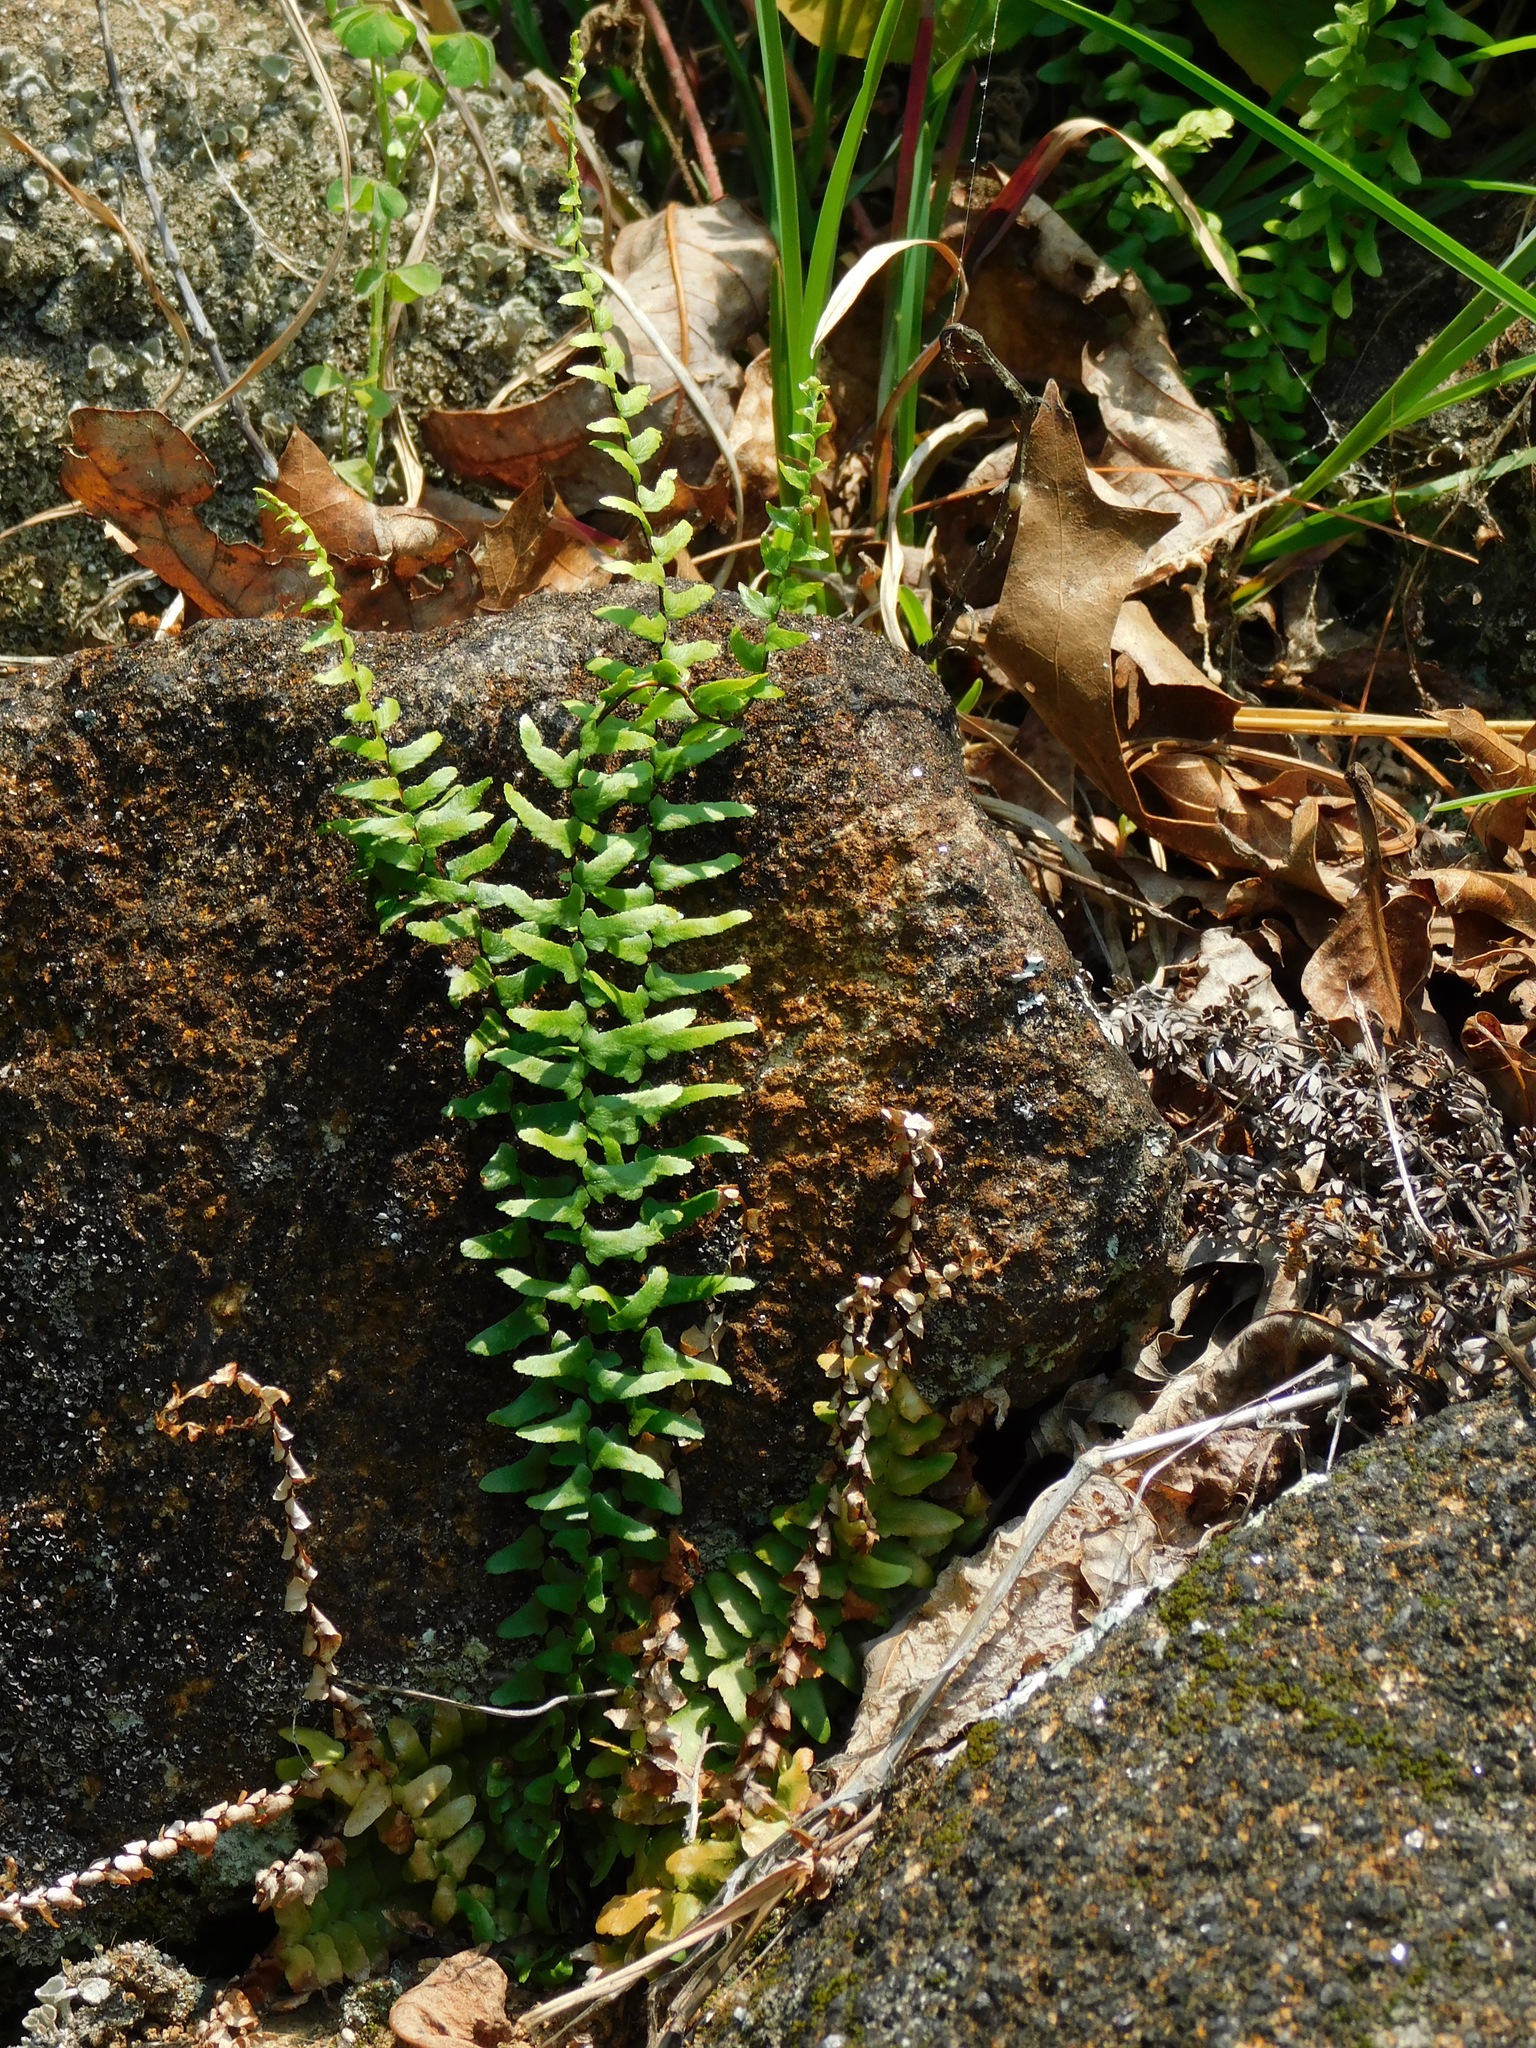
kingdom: Plantae
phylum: Tracheophyta
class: Polypodiopsida
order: Polypodiales
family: Aspleniaceae
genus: Asplenium
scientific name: Asplenium platyneuron
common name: Ebony spleenwort
